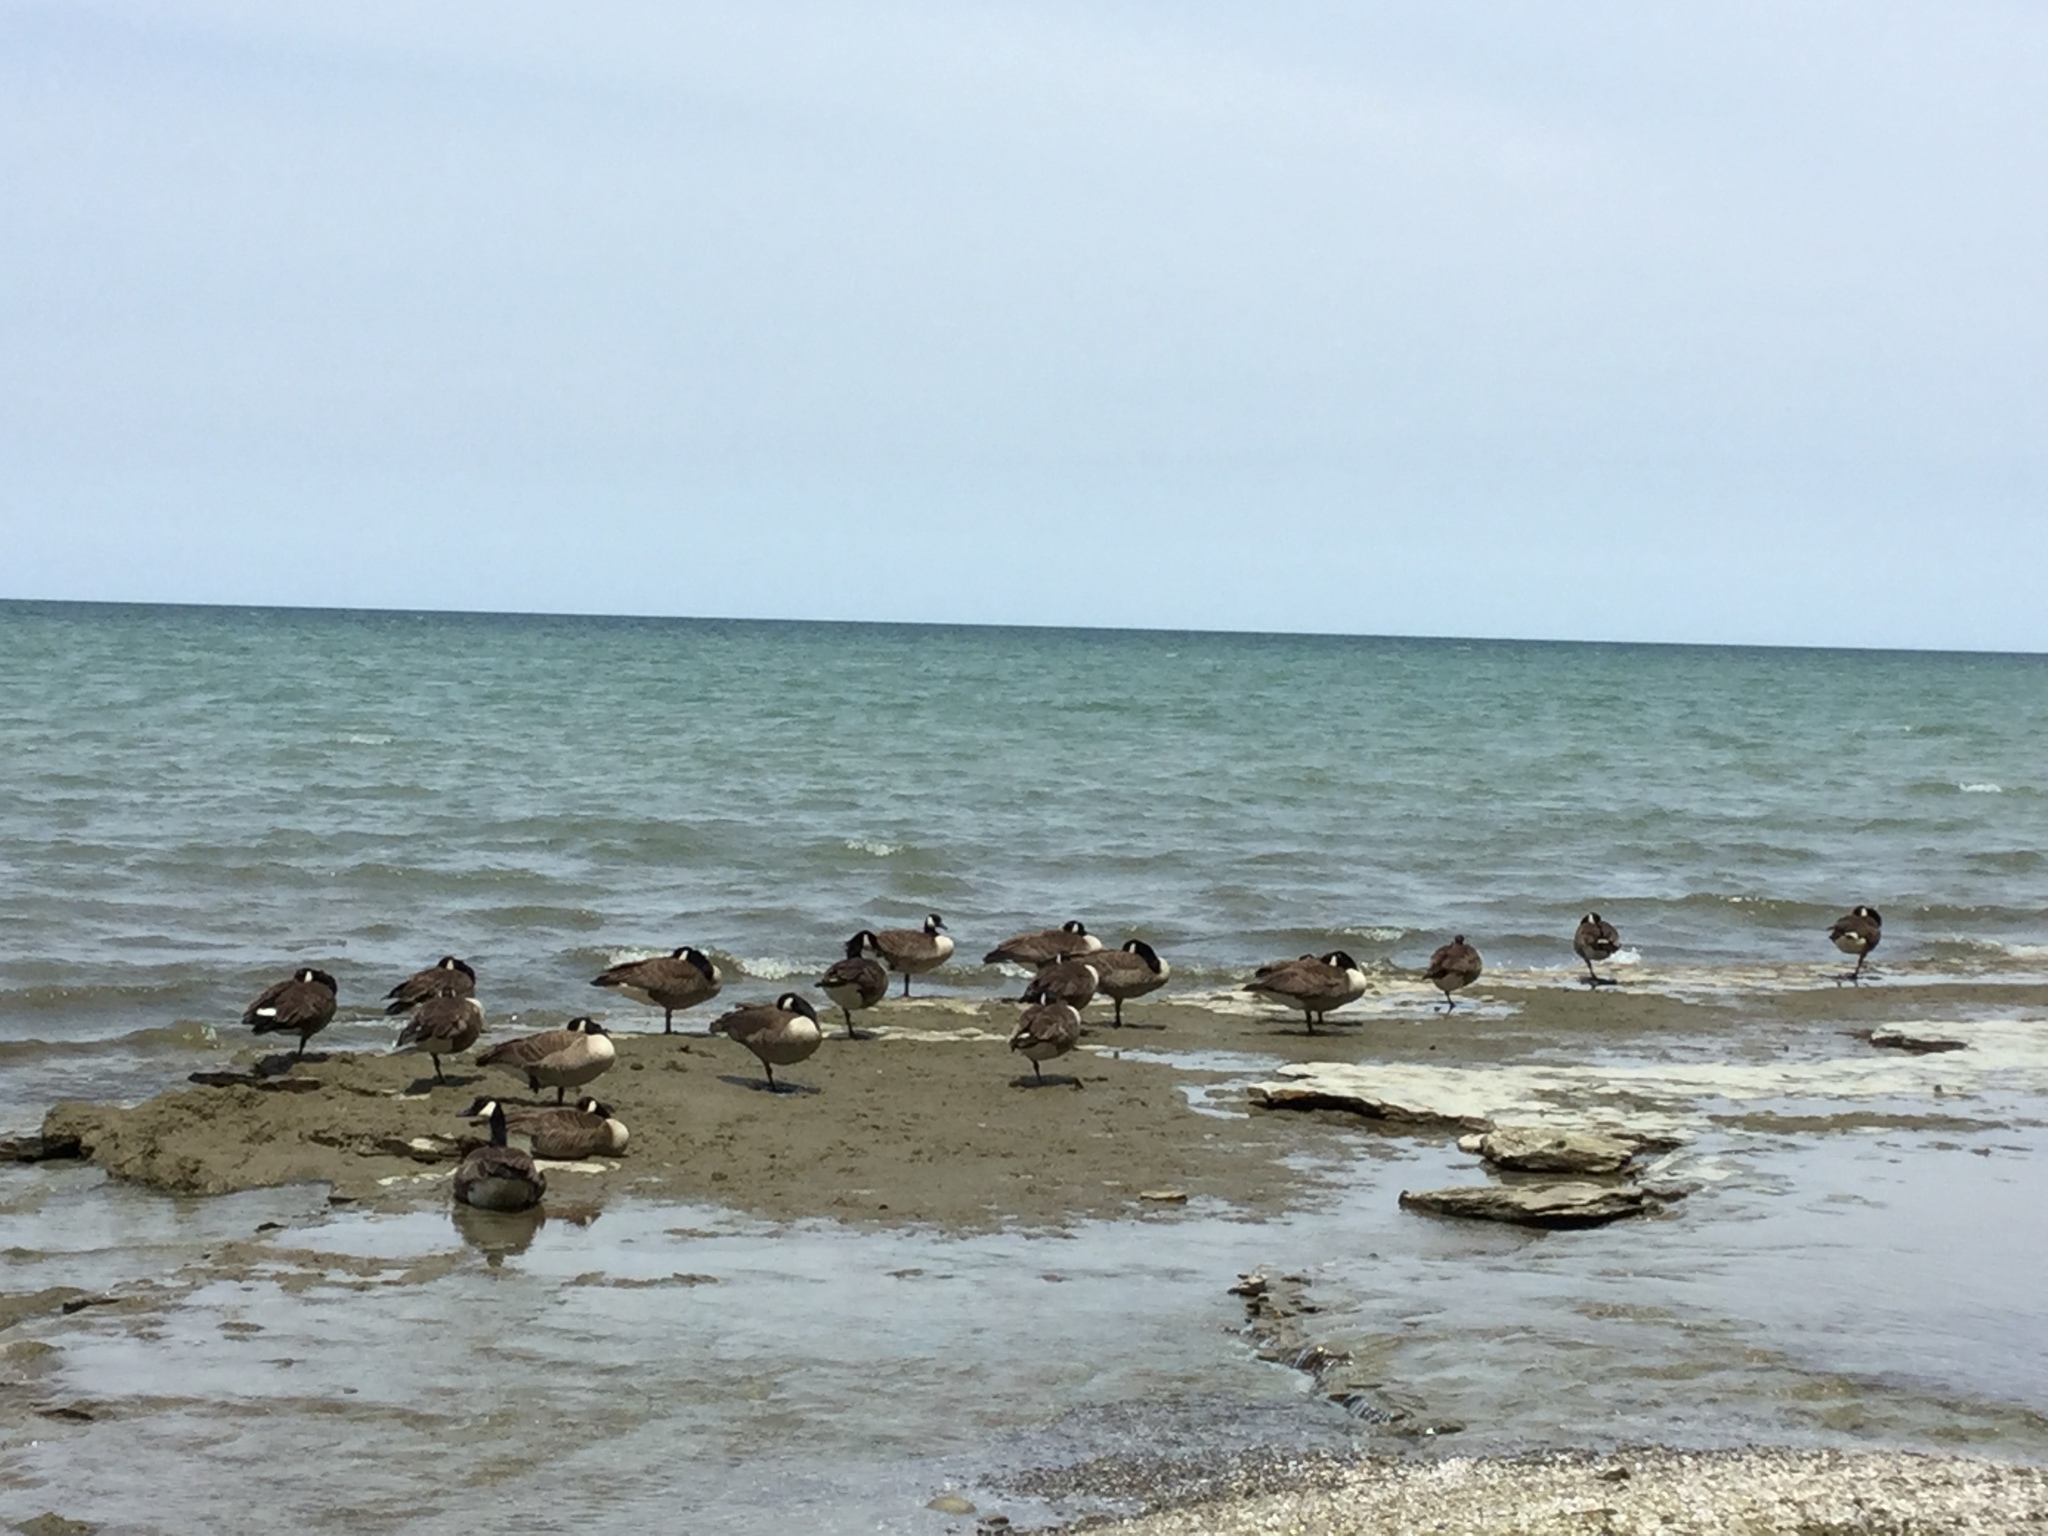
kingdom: Animalia
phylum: Chordata
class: Aves
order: Anseriformes
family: Anatidae
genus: Branta
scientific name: Branta canadensis
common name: Canada goose
